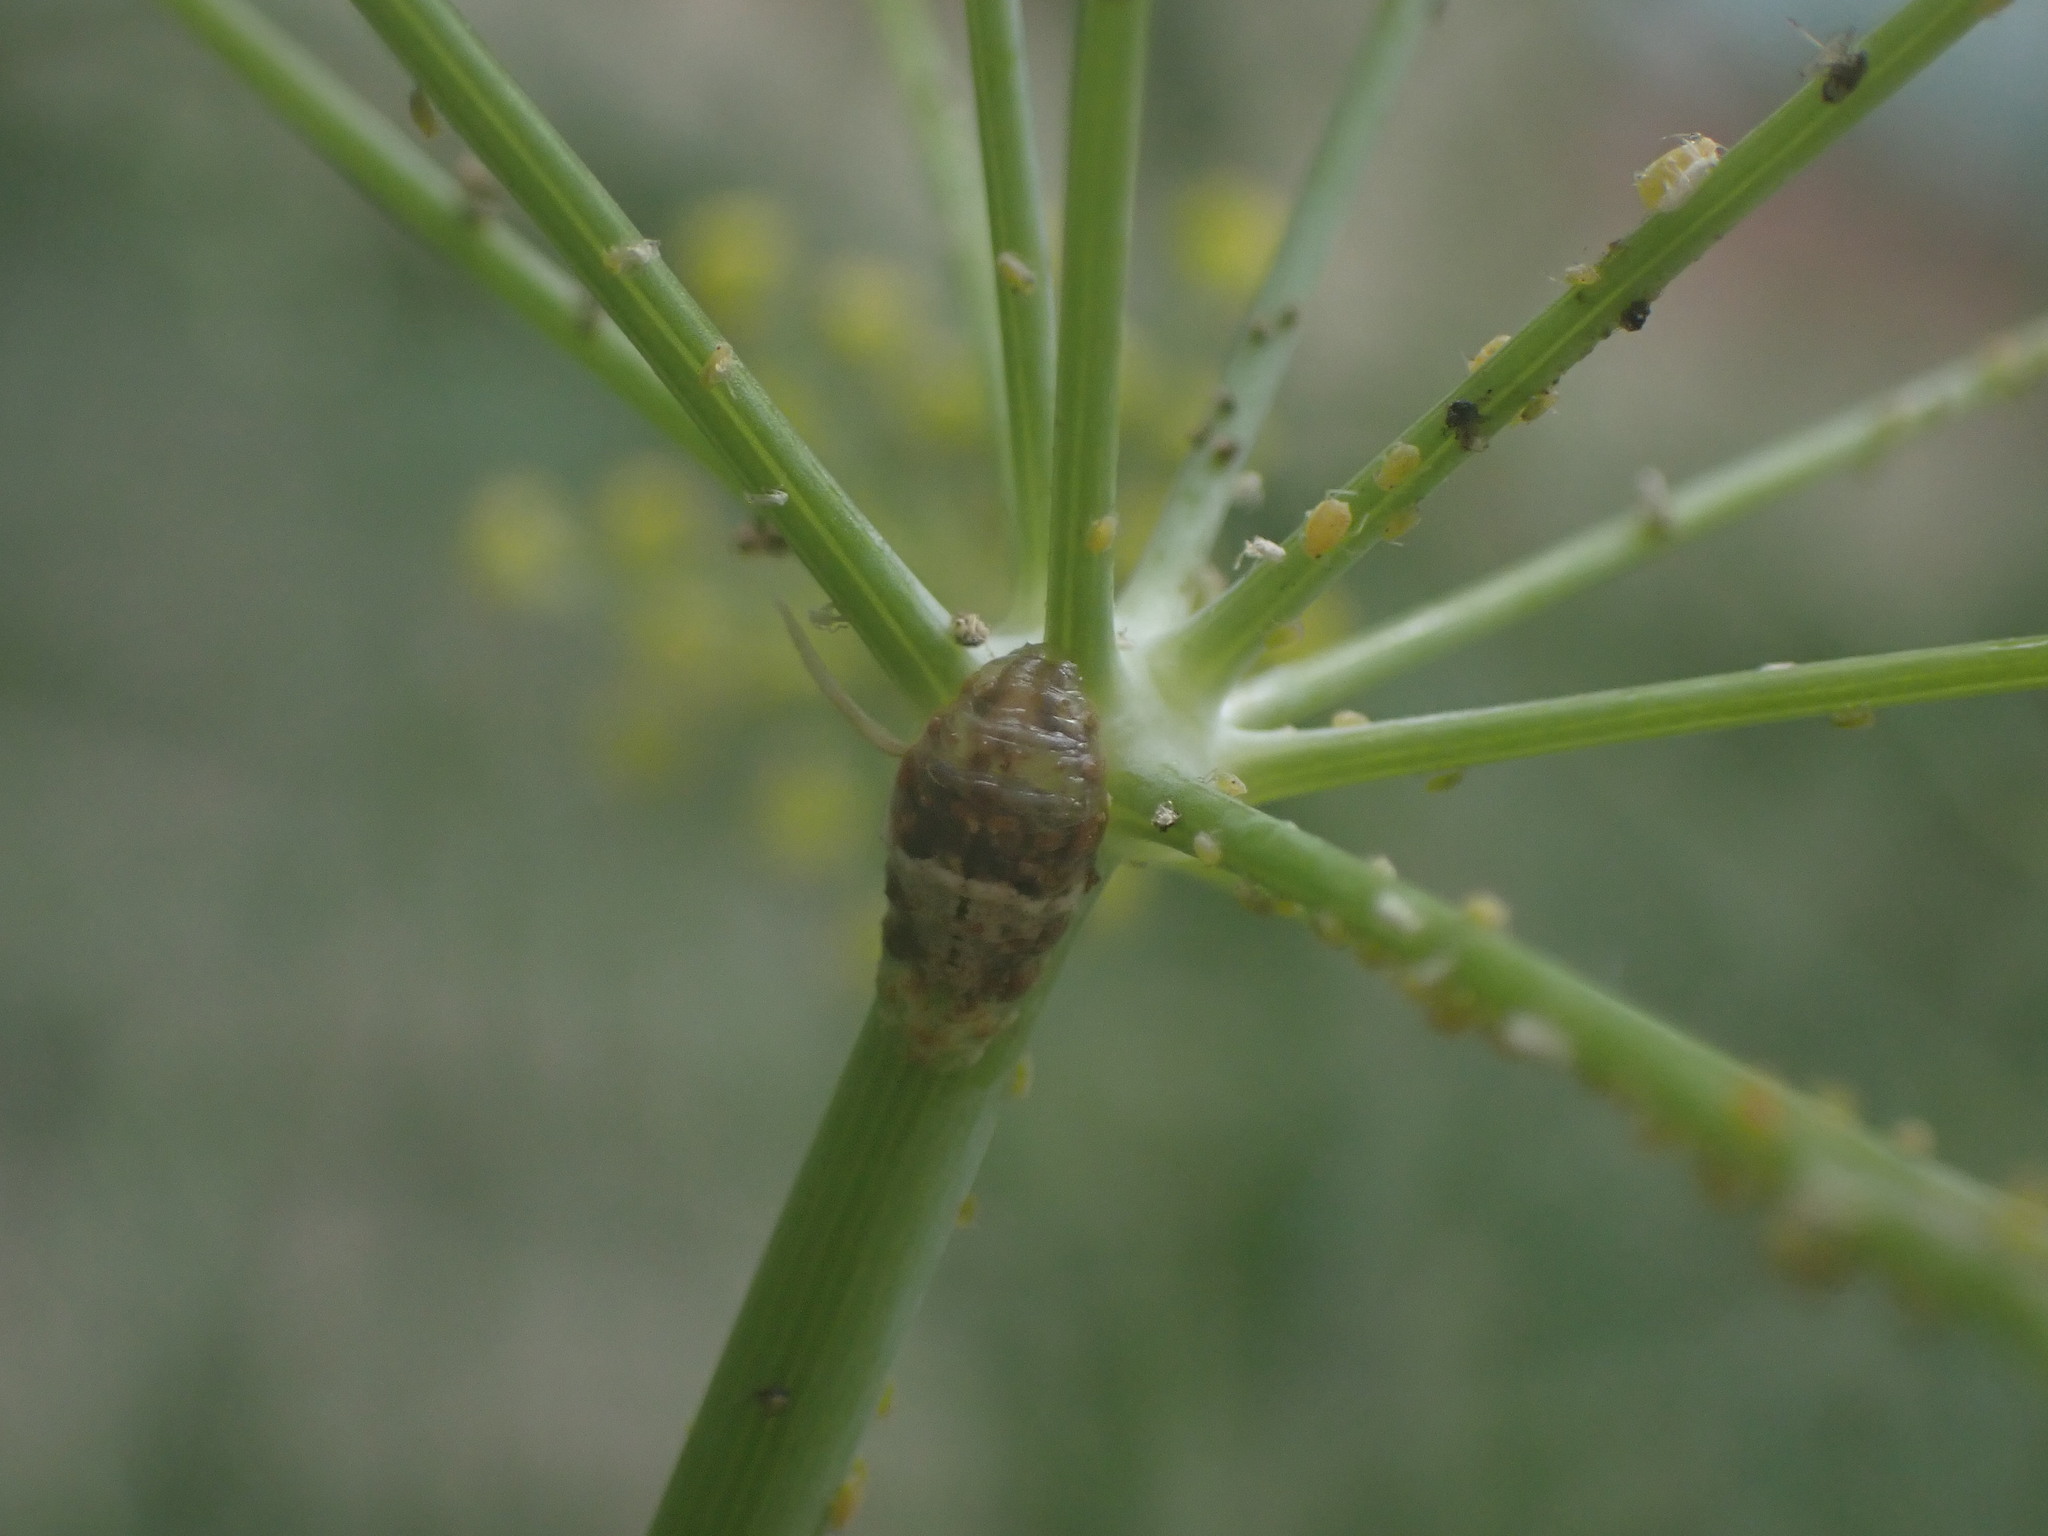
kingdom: Animalia
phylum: Arthropoda
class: Insecta
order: Diptera
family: Syrphidae
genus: Ocyptamus
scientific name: Ocyptamus fuscipennis
